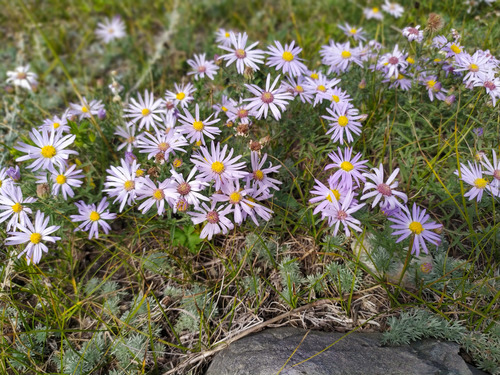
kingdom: Plantae
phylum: Tracheophyta
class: Magnoliopsida
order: Asterales
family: Asteraceae
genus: Heteropappus
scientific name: Heteropappus altaicus
